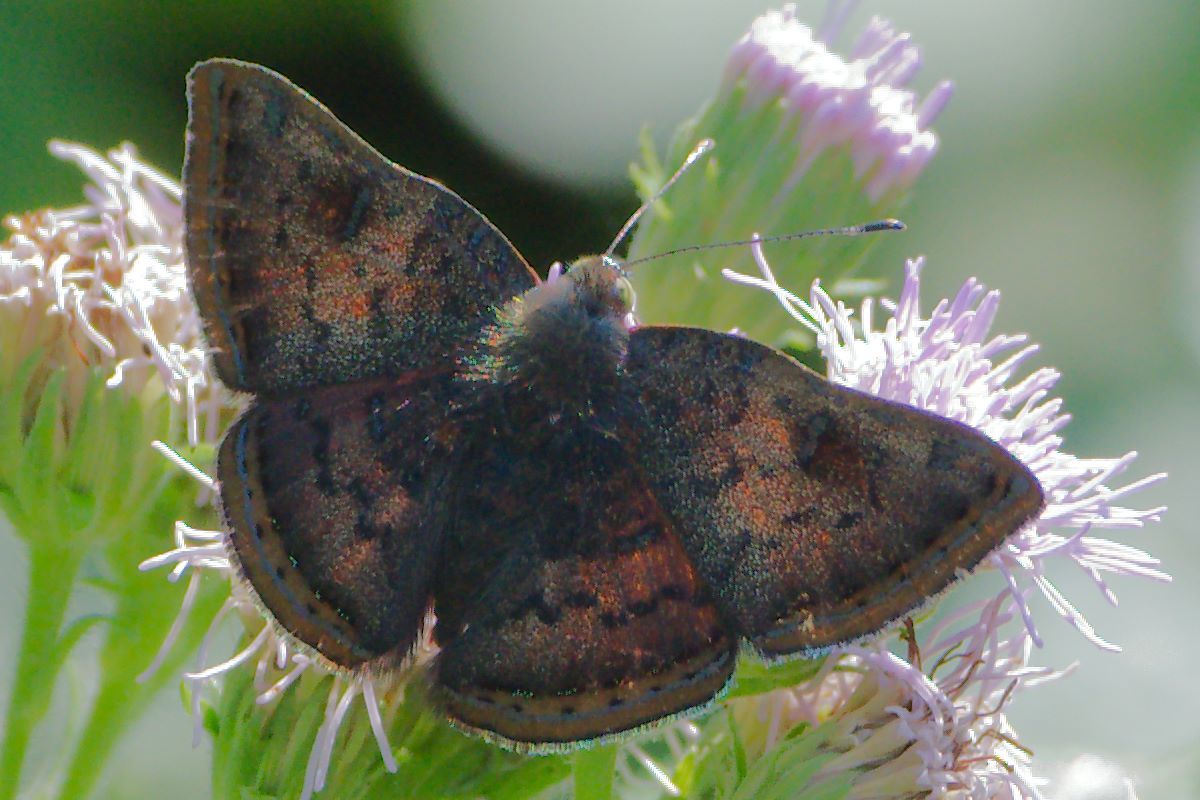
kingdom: Animalia
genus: Caria
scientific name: Caria ino
